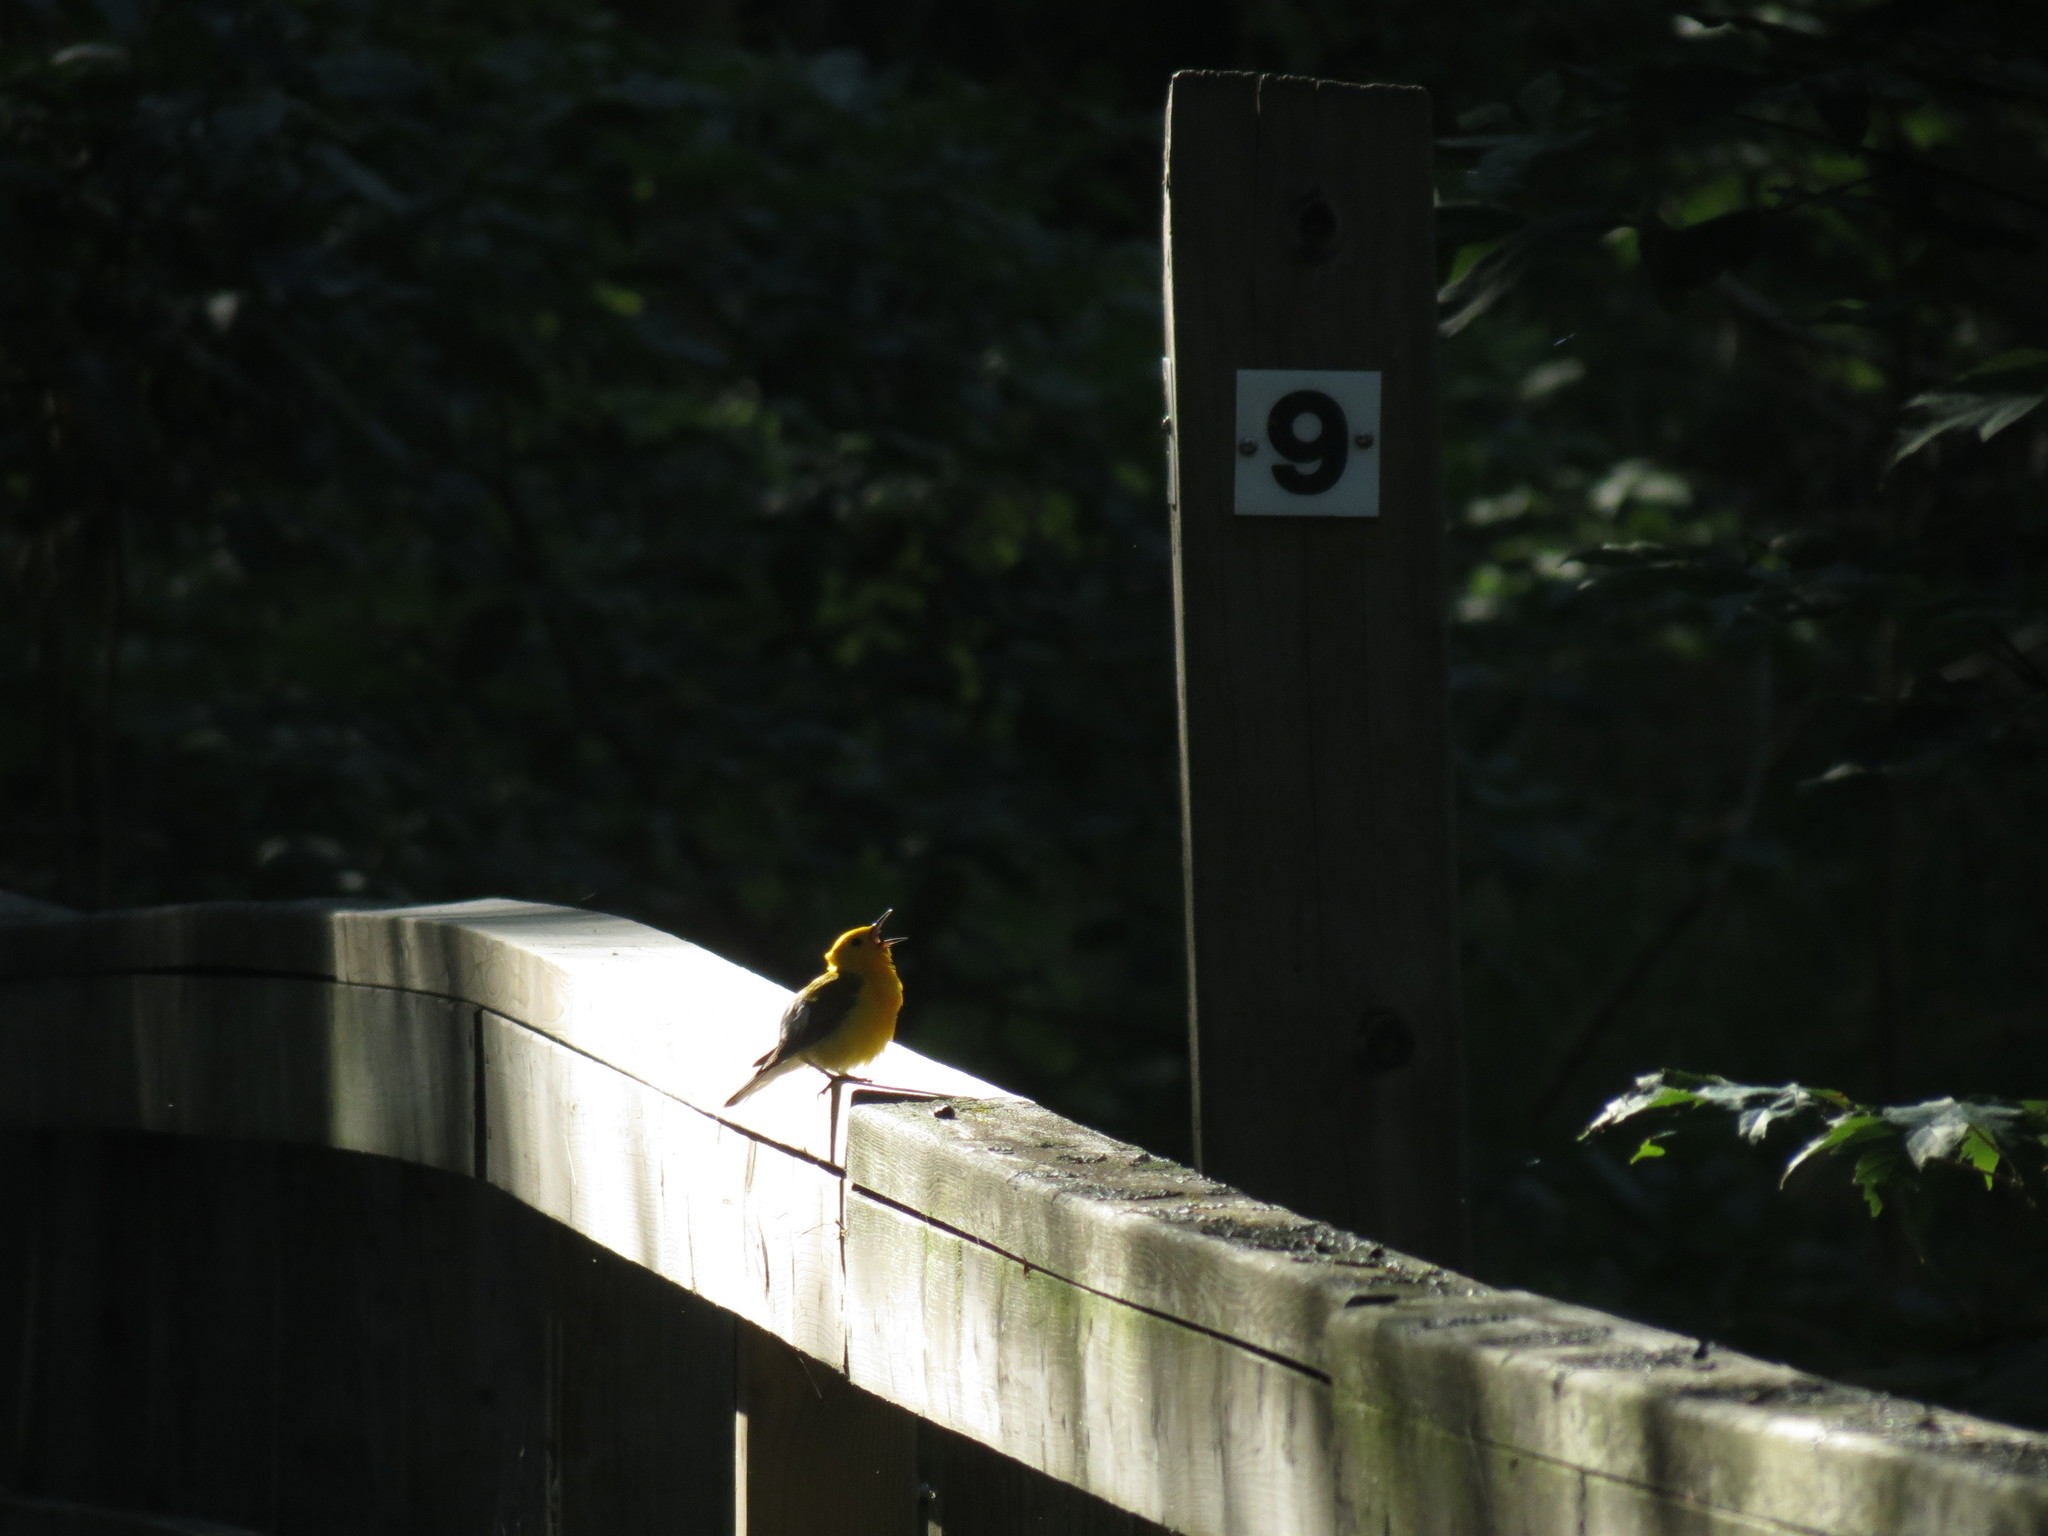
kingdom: Animalia
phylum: Chordata
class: Aves
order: Passeriformes
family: Parulidae
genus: Protonotaria
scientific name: Protonotaria citrea
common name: Prothonotary warbler
